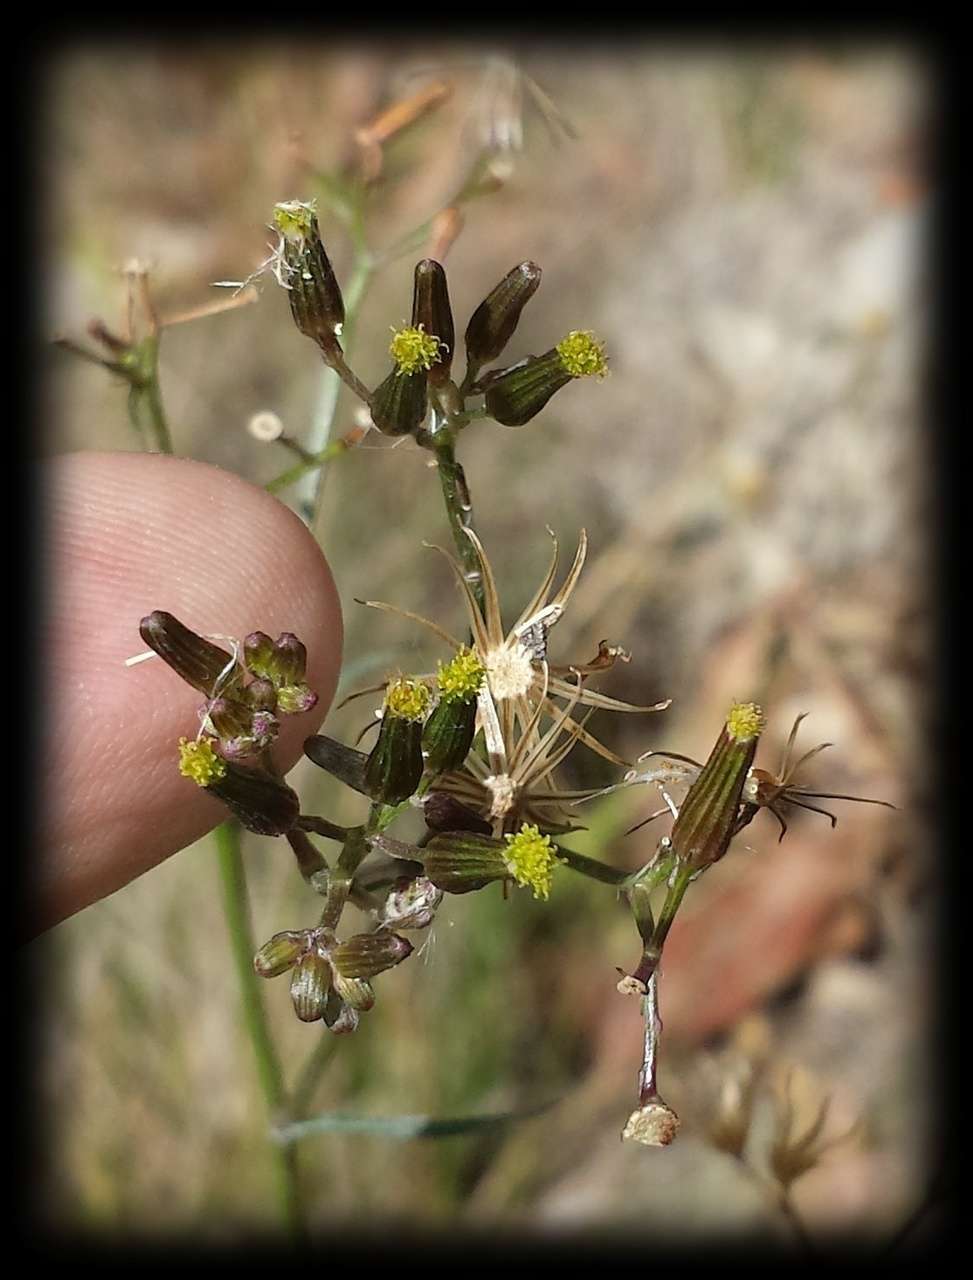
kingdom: Plantae
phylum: Tracheophyta
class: Magnoliopsida
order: Asterales
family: Asteraceae
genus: Senecio
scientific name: Senecio microbasis
